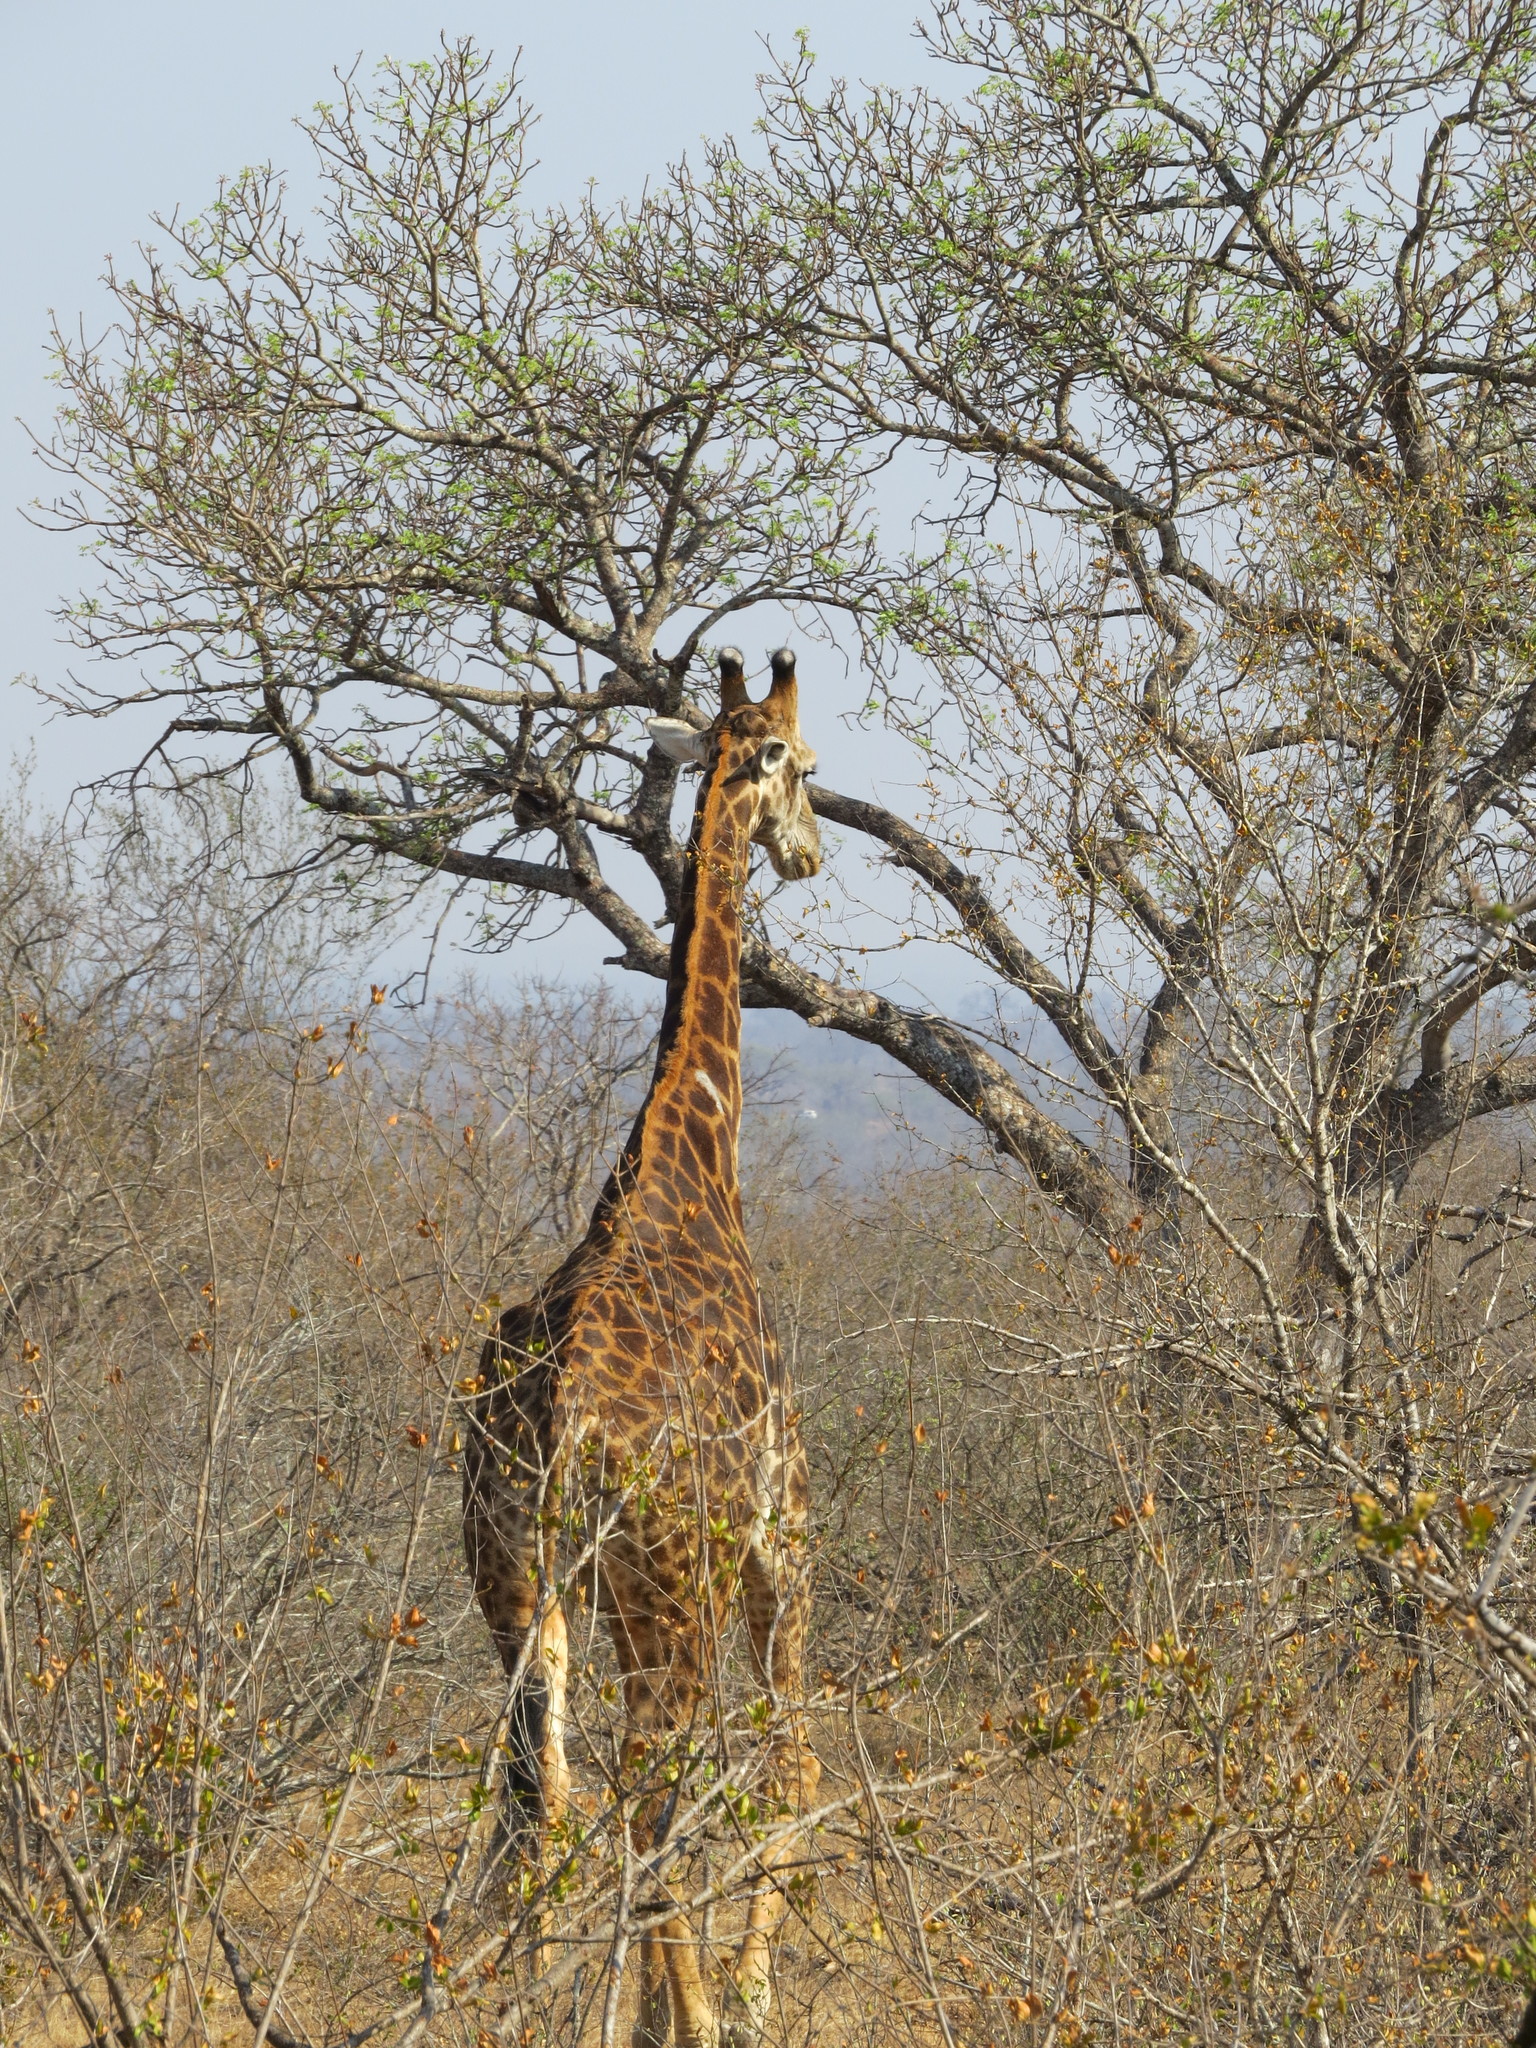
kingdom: Animalia
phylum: Chordata
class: Mammalia
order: Artiodactyla
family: Giraffidae
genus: Giraffa
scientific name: Giraffa giraffa
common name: Southern giraffe
